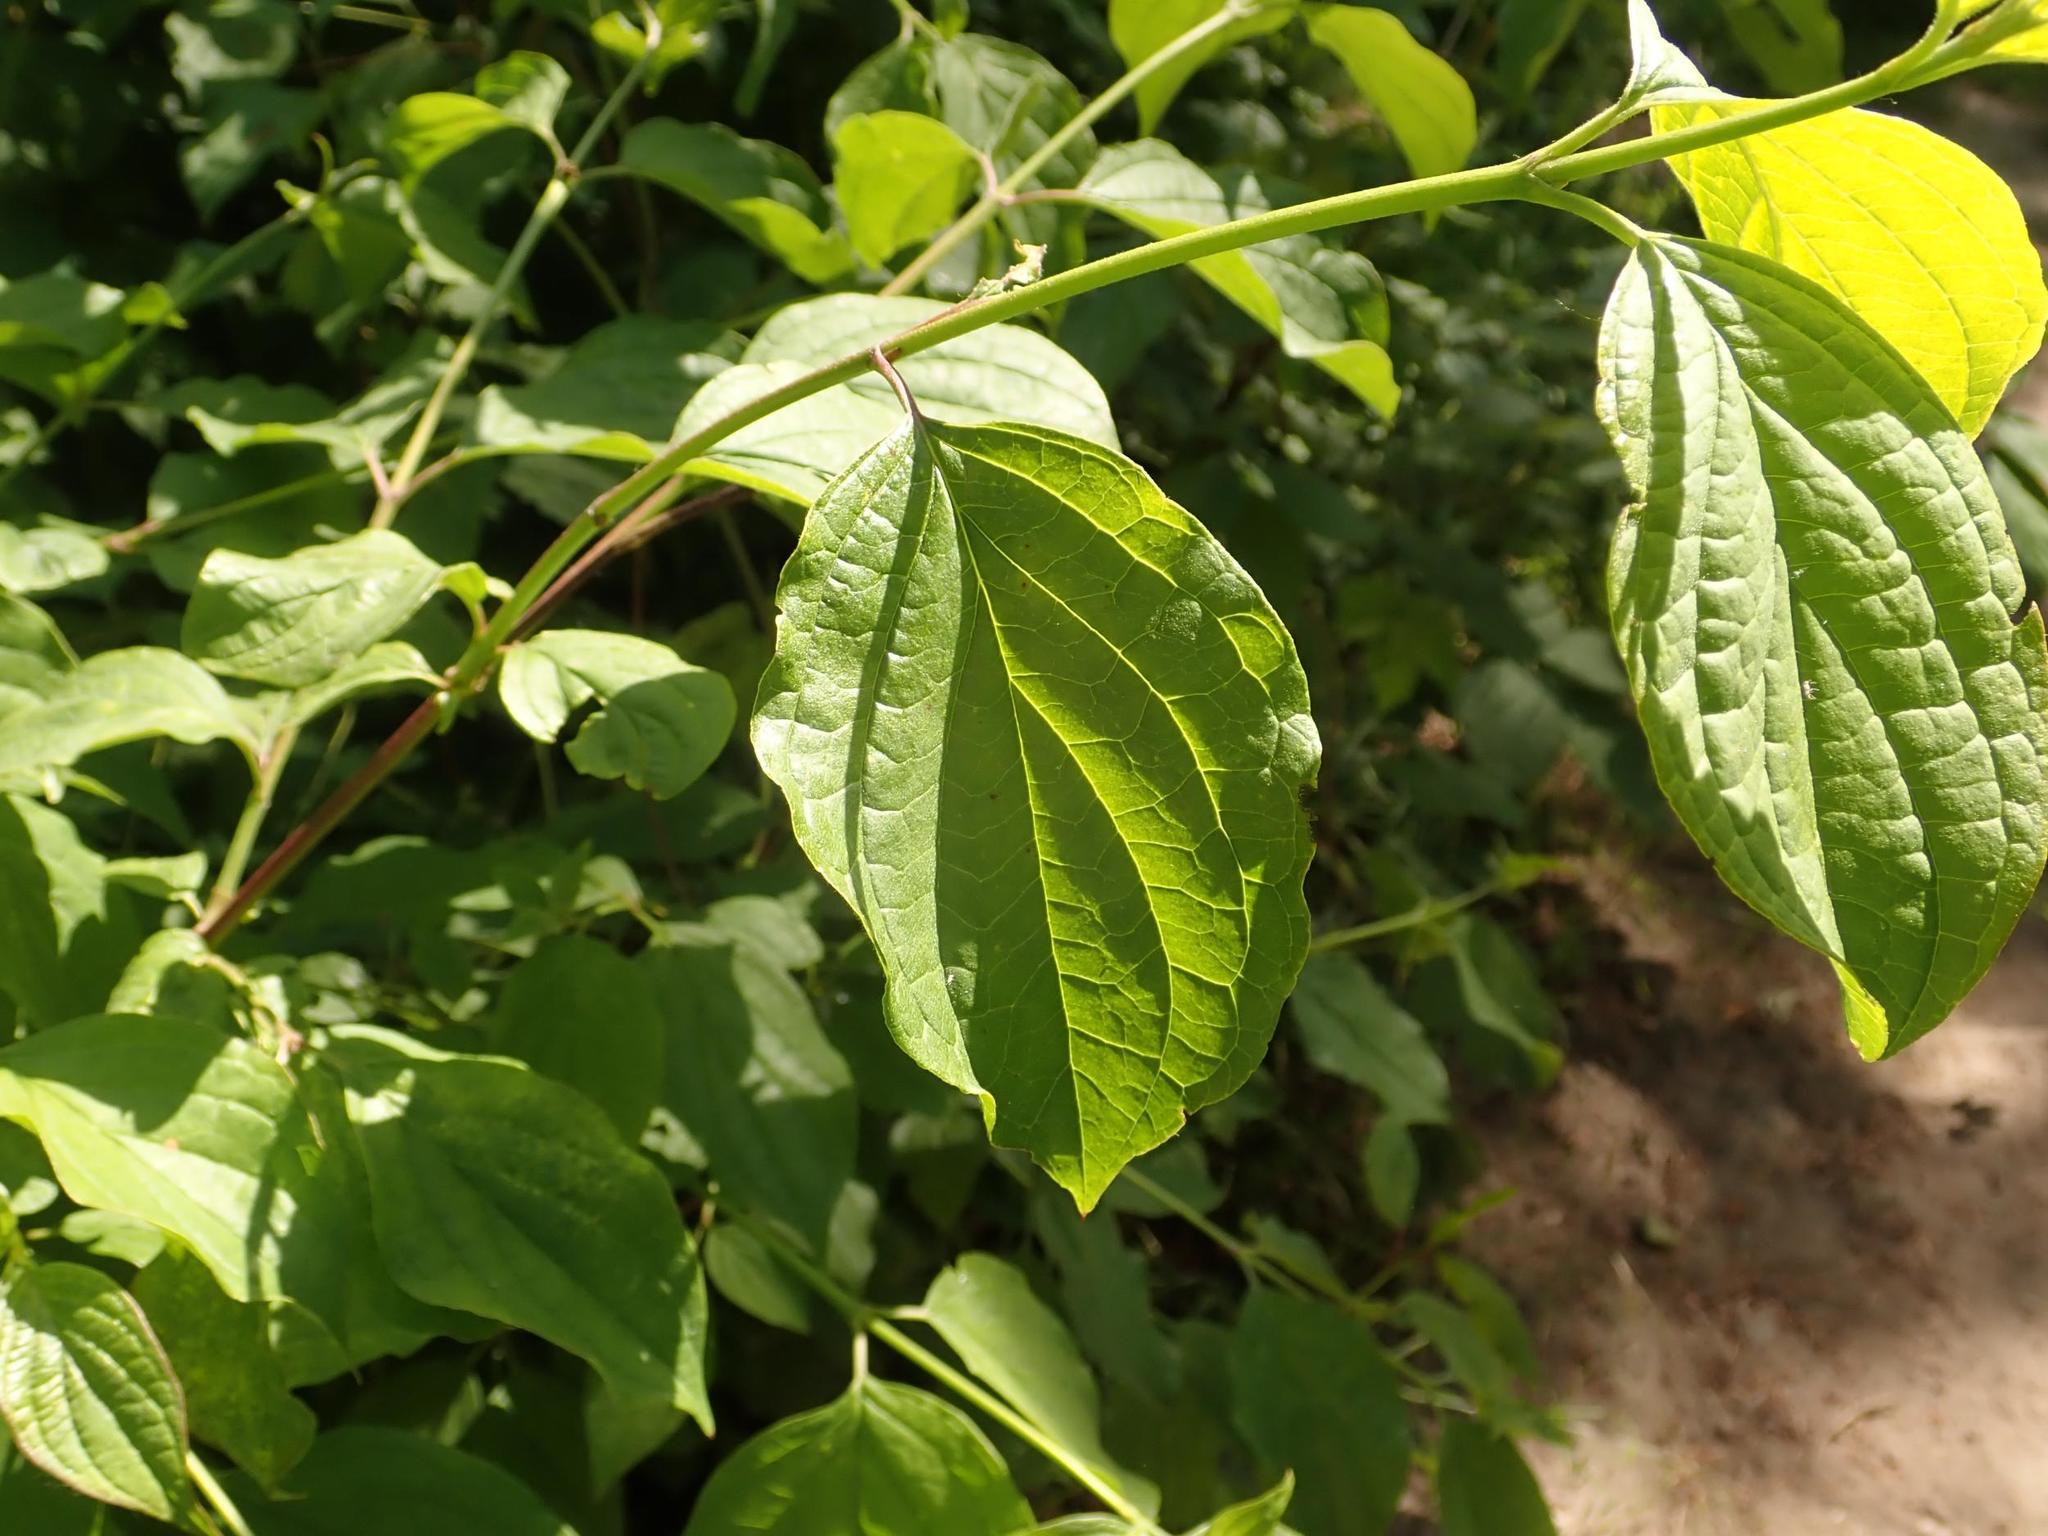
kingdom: Plantae
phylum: Tracheophyta
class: Magnoliopsida
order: Cornales
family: Cornaceae
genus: Cornus
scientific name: Cornus sanguinea
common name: Dogwood
